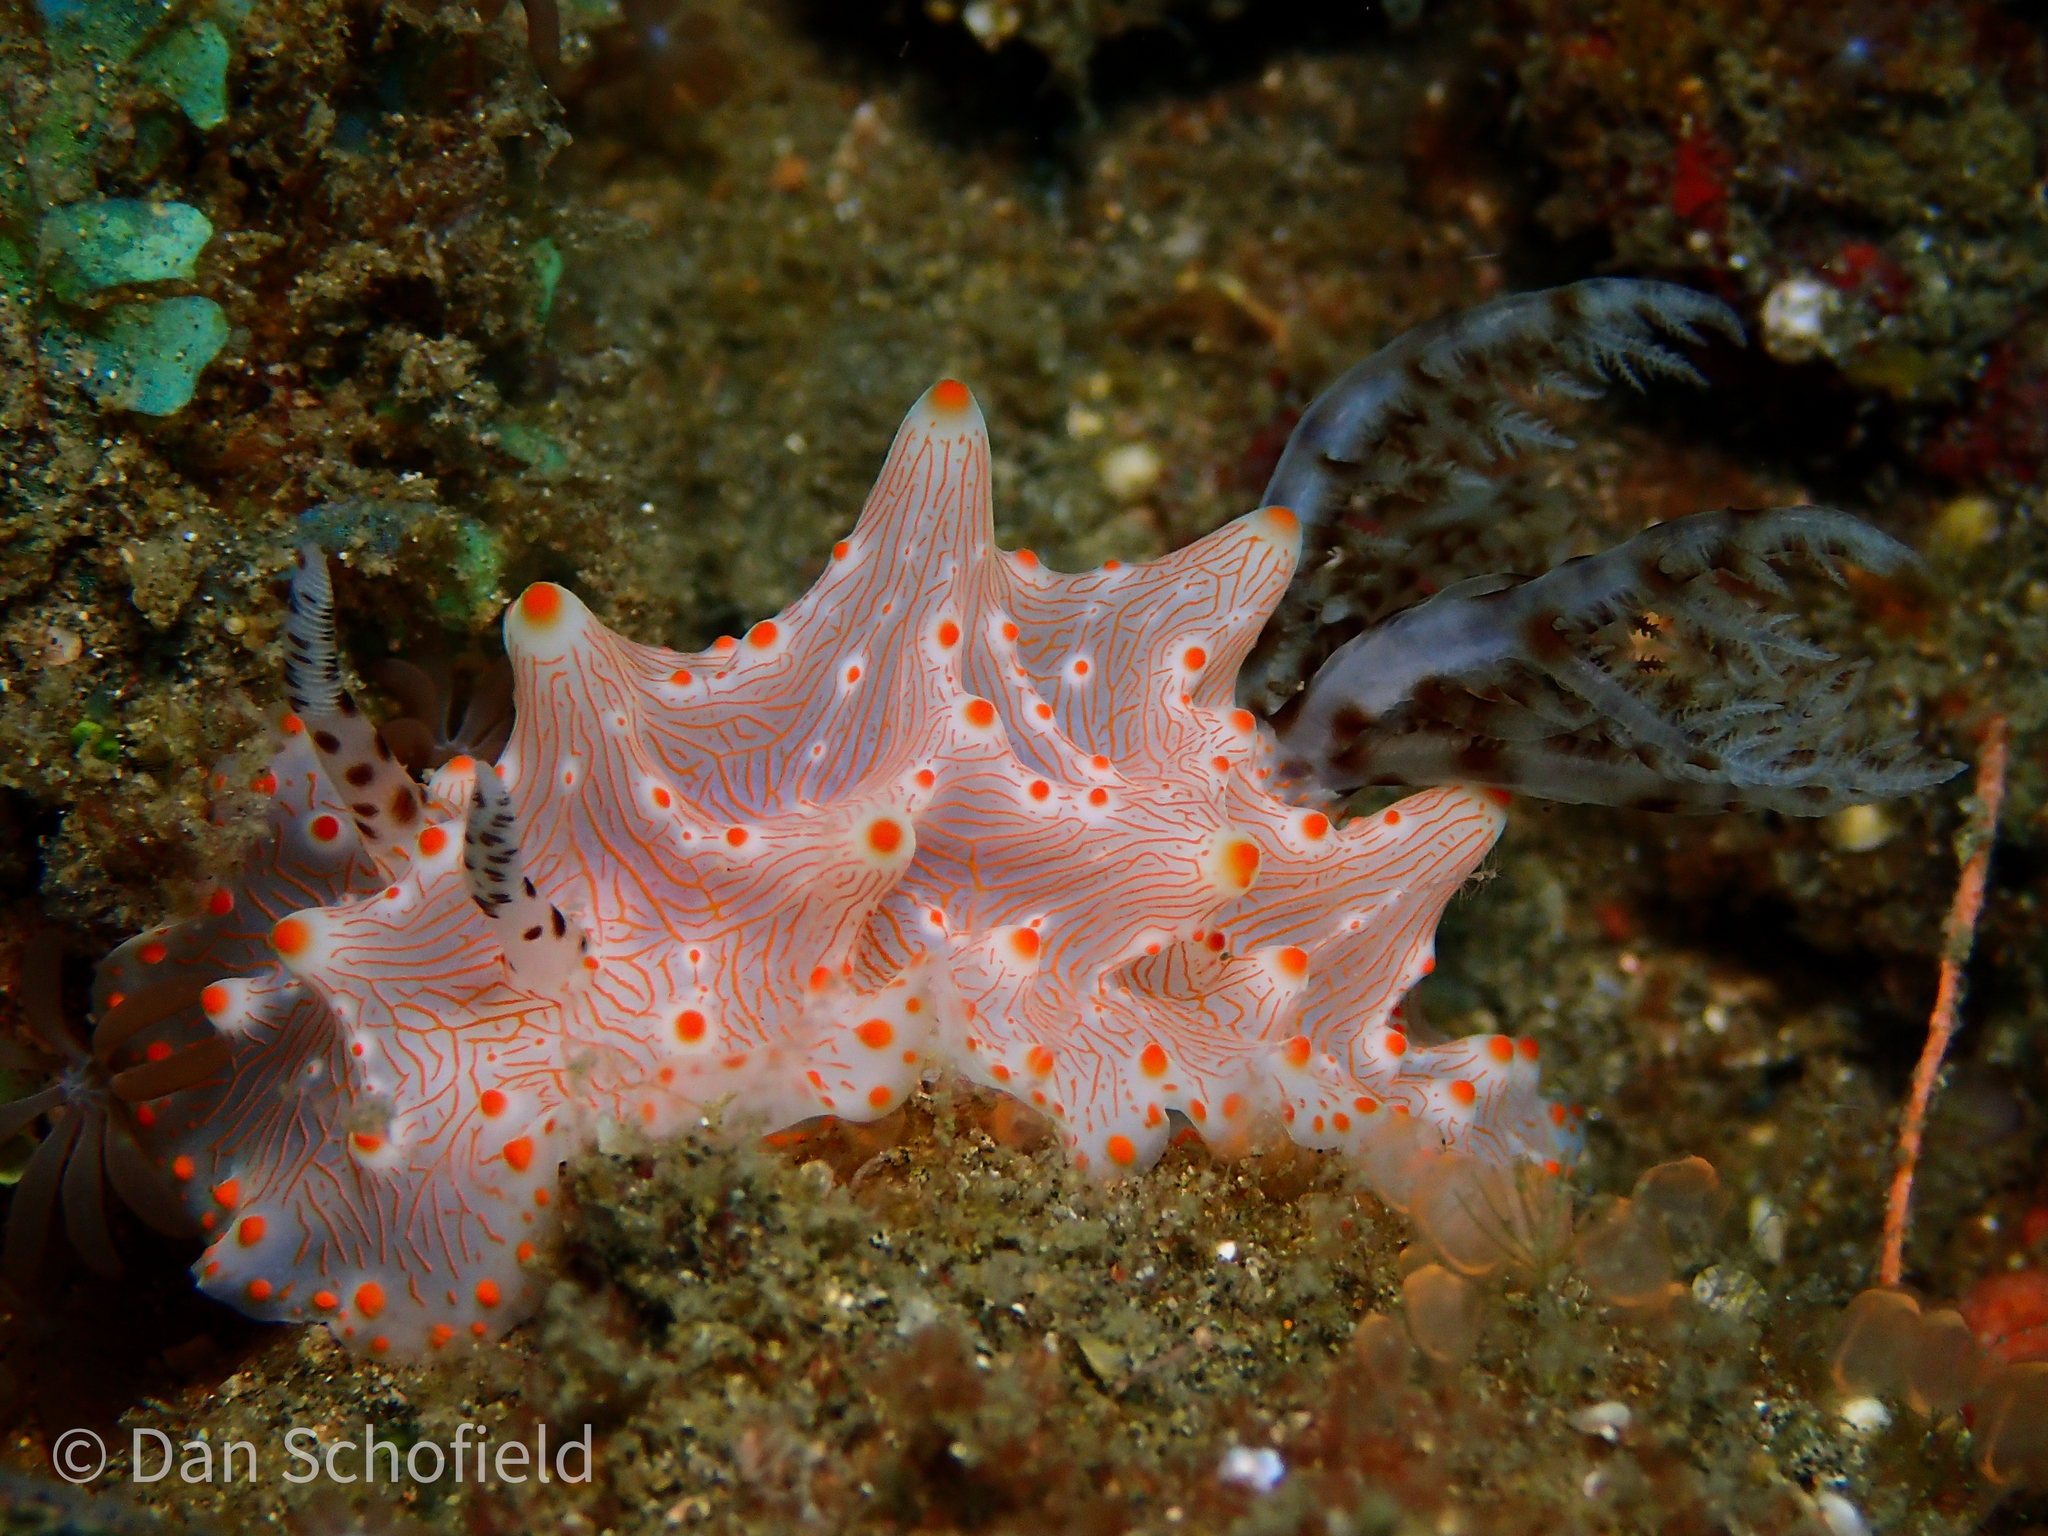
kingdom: Animalia
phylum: Mollusca
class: Gastropoda
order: Nudibranchia
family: Discodorididae
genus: Halgerda
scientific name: Halgerda batangas
